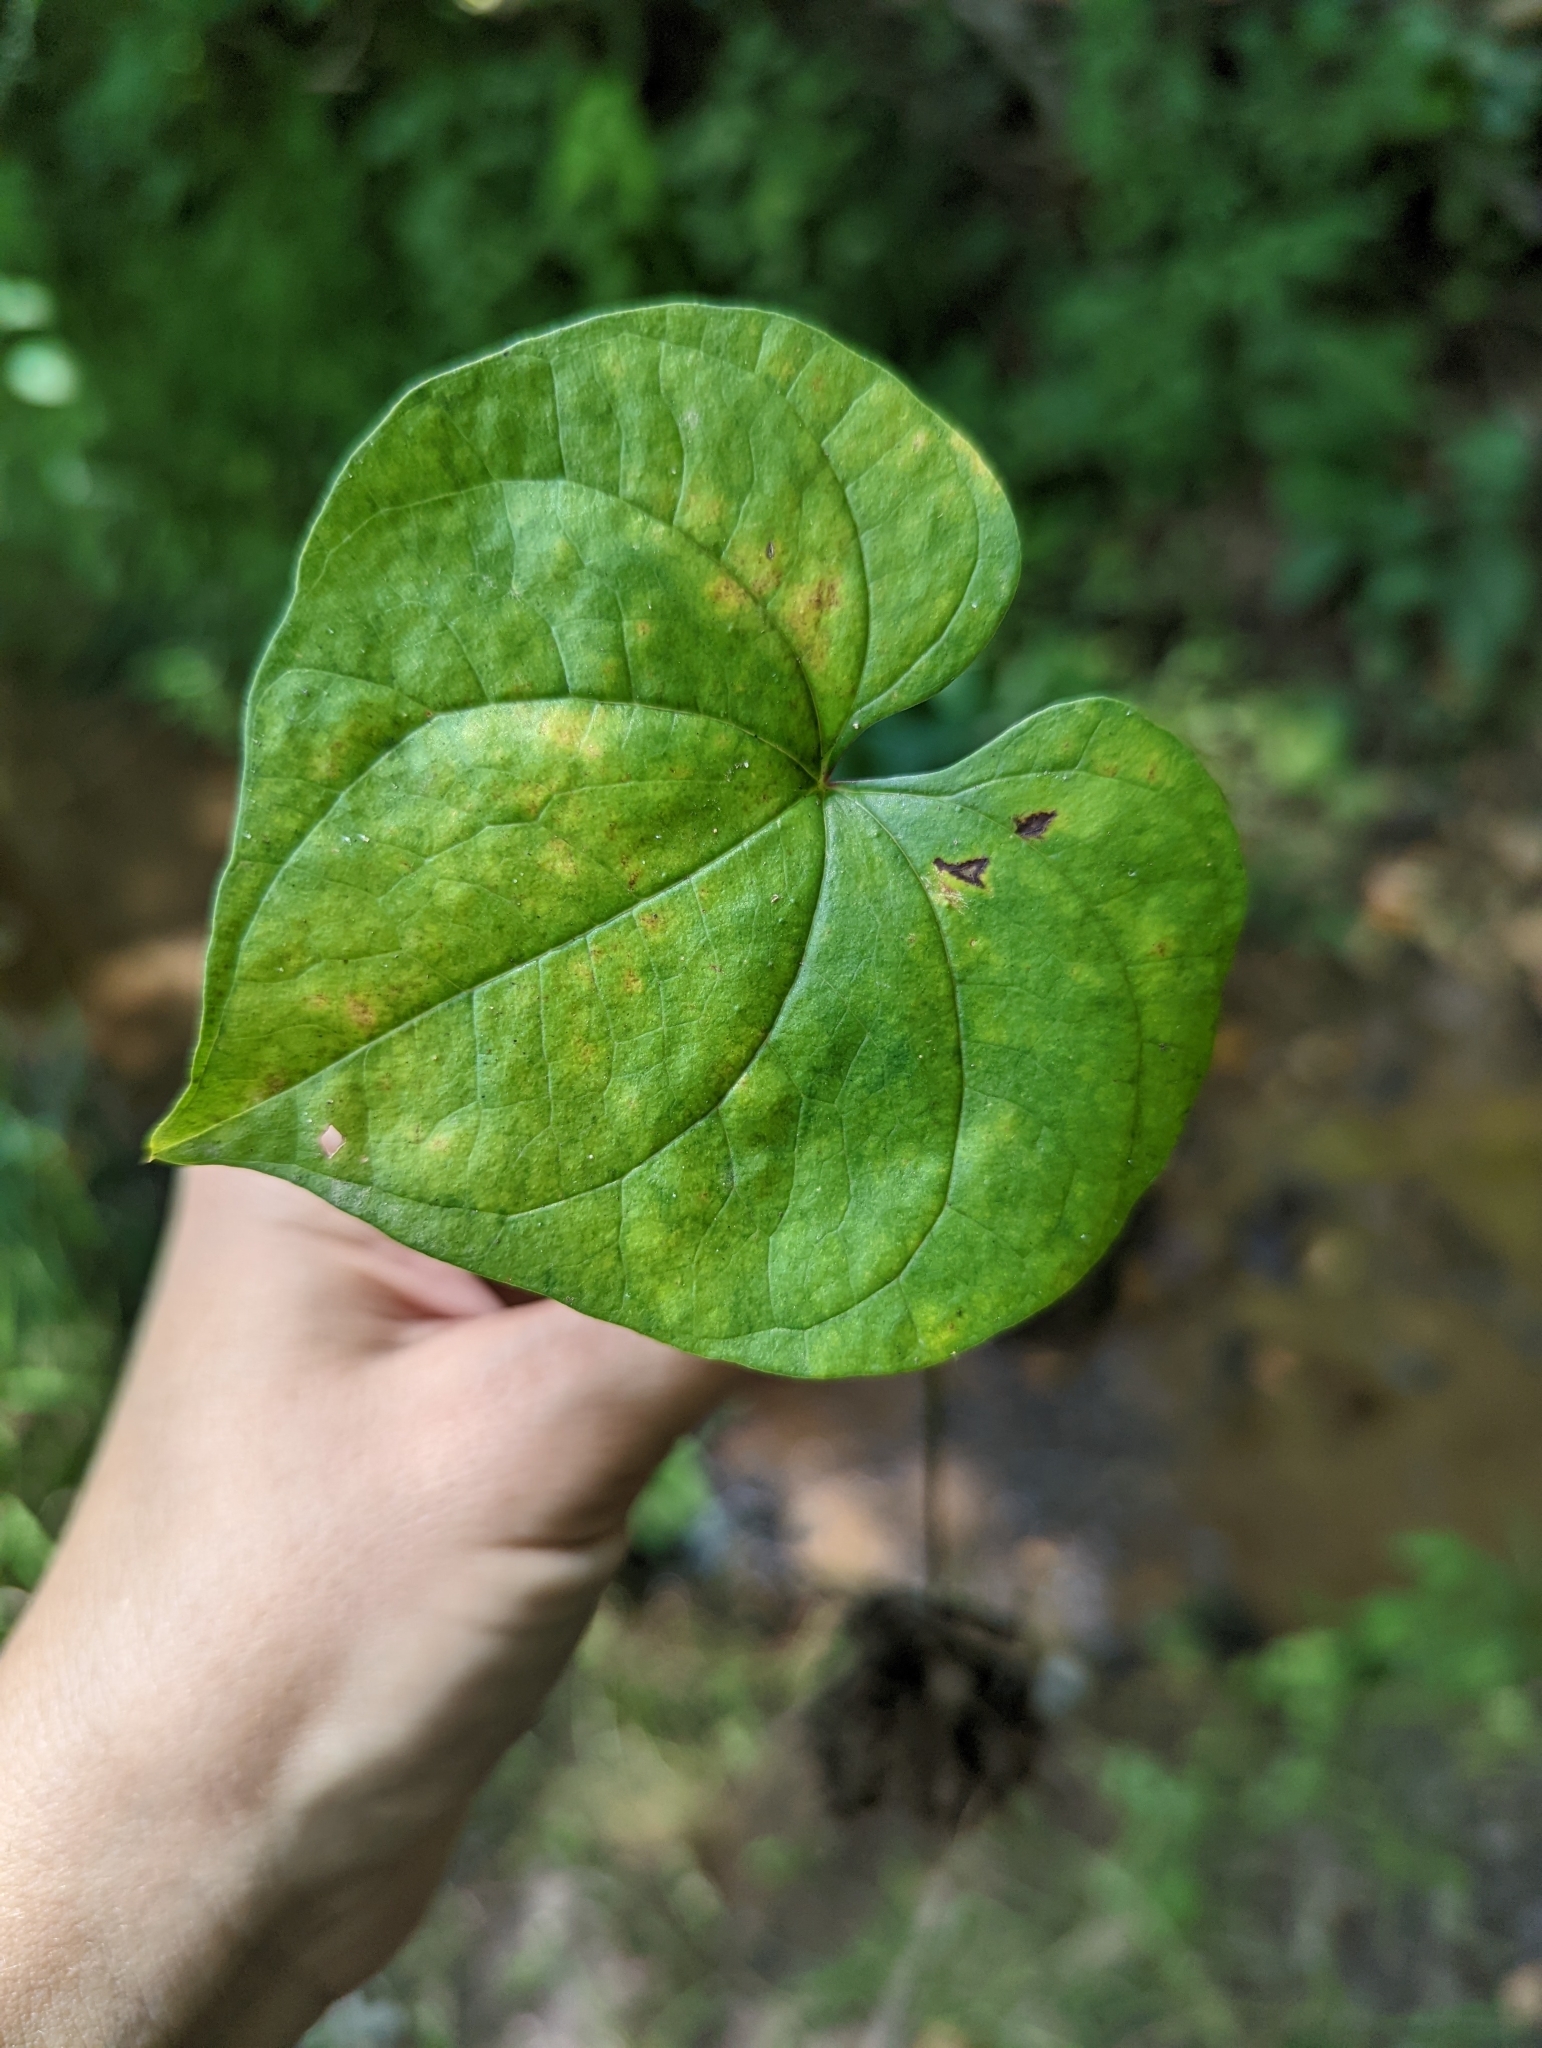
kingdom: Plantae
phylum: Tracheophyta
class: Liliopsida
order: Dioscoreales
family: Dioscoreaceae
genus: Dioscorea
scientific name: Dioscorea polystachya
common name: Chinese yam
